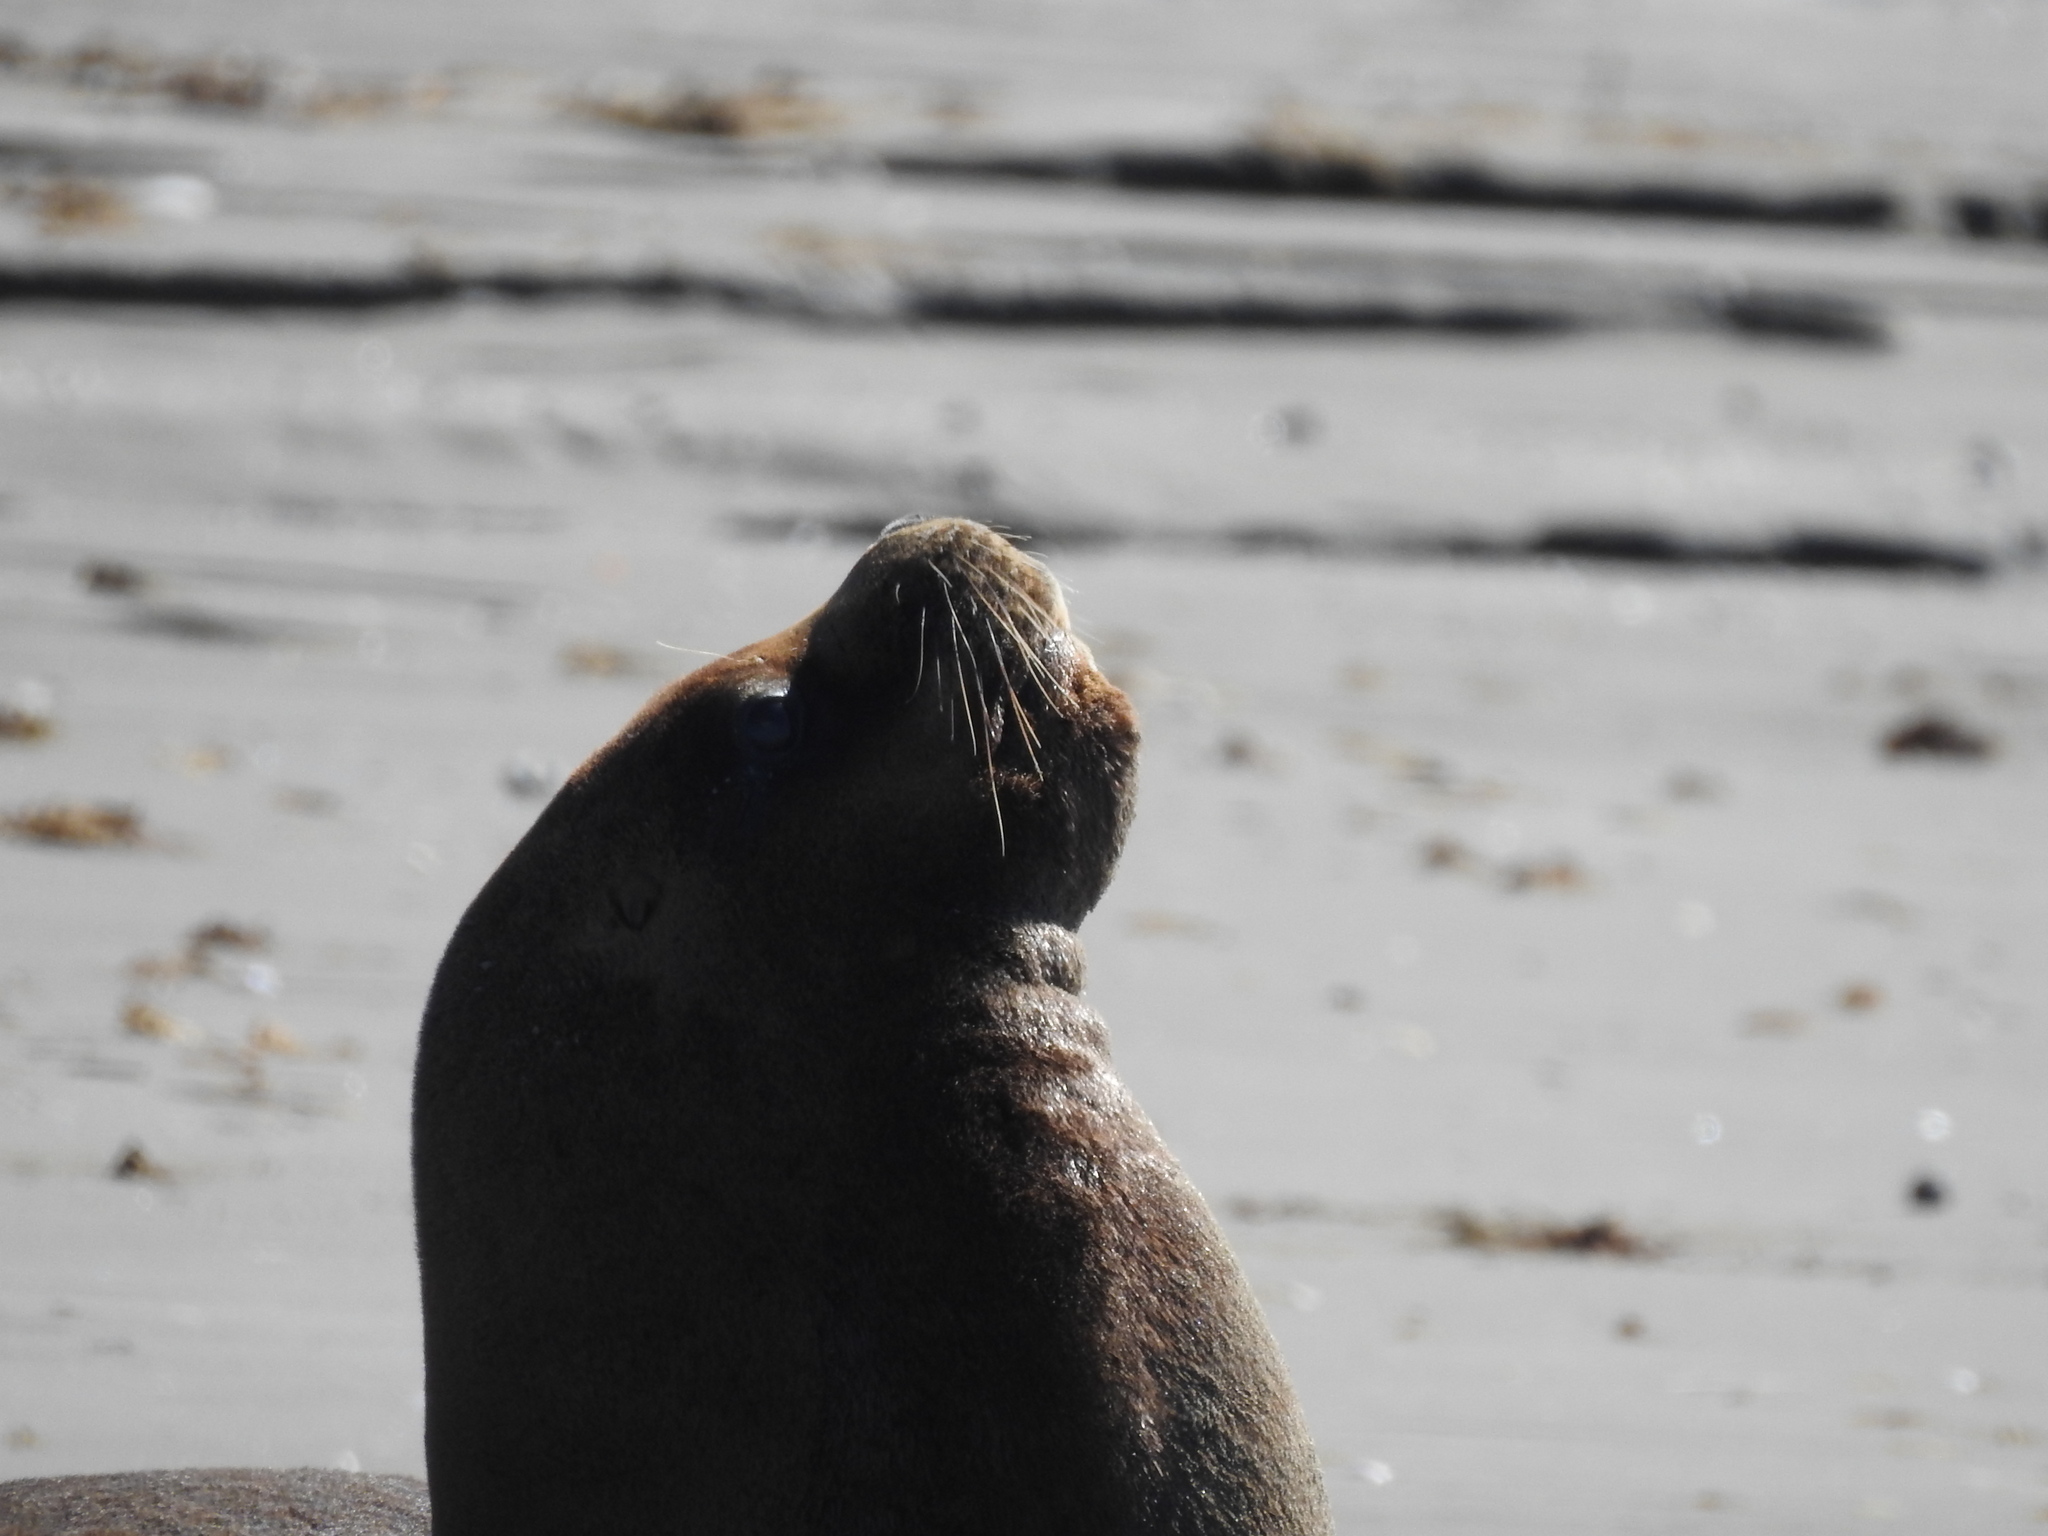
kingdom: Animalia
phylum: Chordata
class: Mammalia
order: Carnivora
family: Otariidae
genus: Otaria
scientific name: Otaria byronia
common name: South american sea lion
